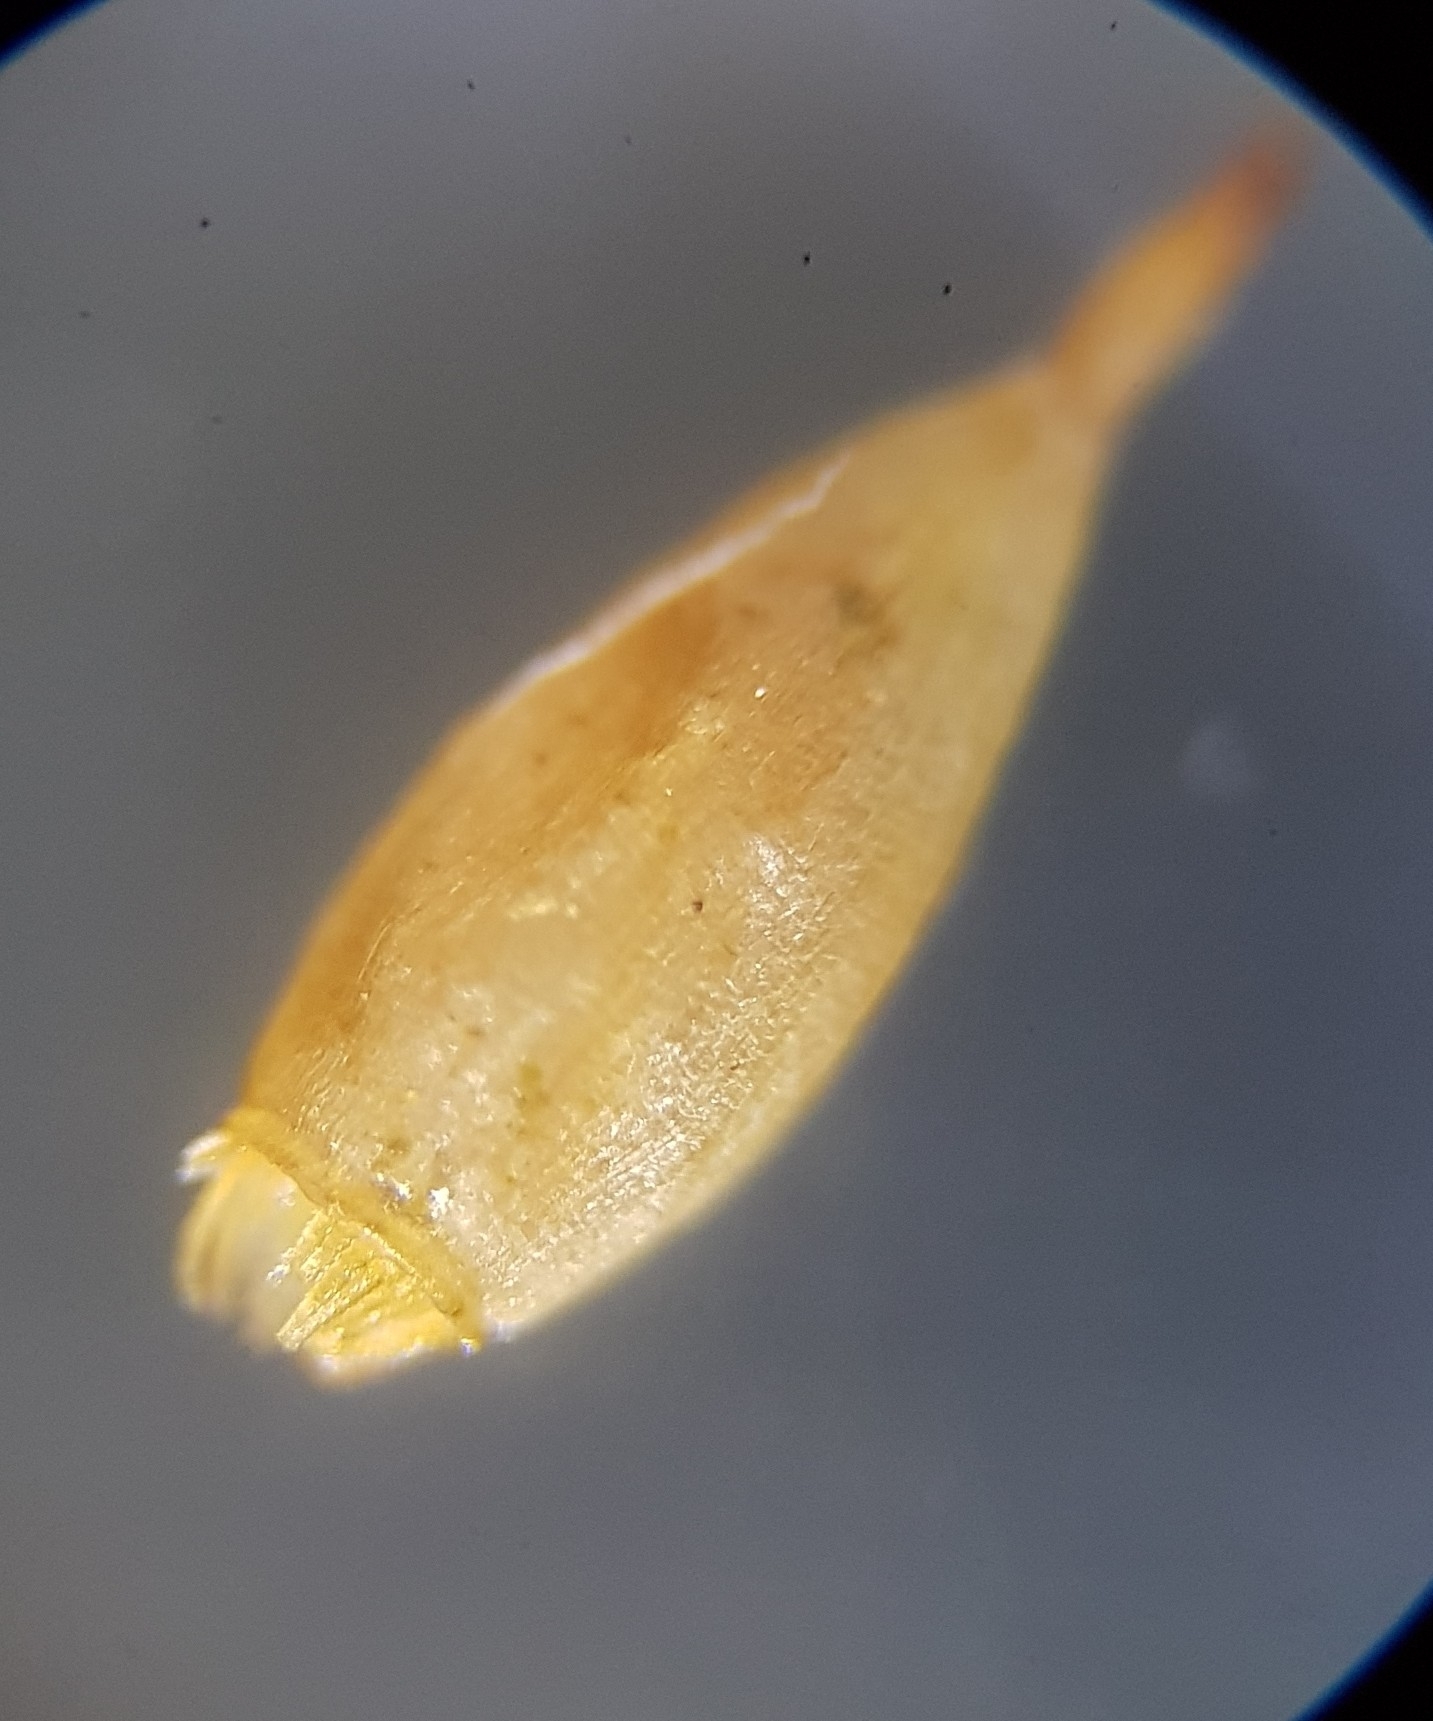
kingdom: Plantae
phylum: Bryophyta
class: Bryopsida
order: Orthotrichales
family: Orthotrichaceae
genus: Lewinskya
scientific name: Lewinskya striata
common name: Shaw's bristle-moss
